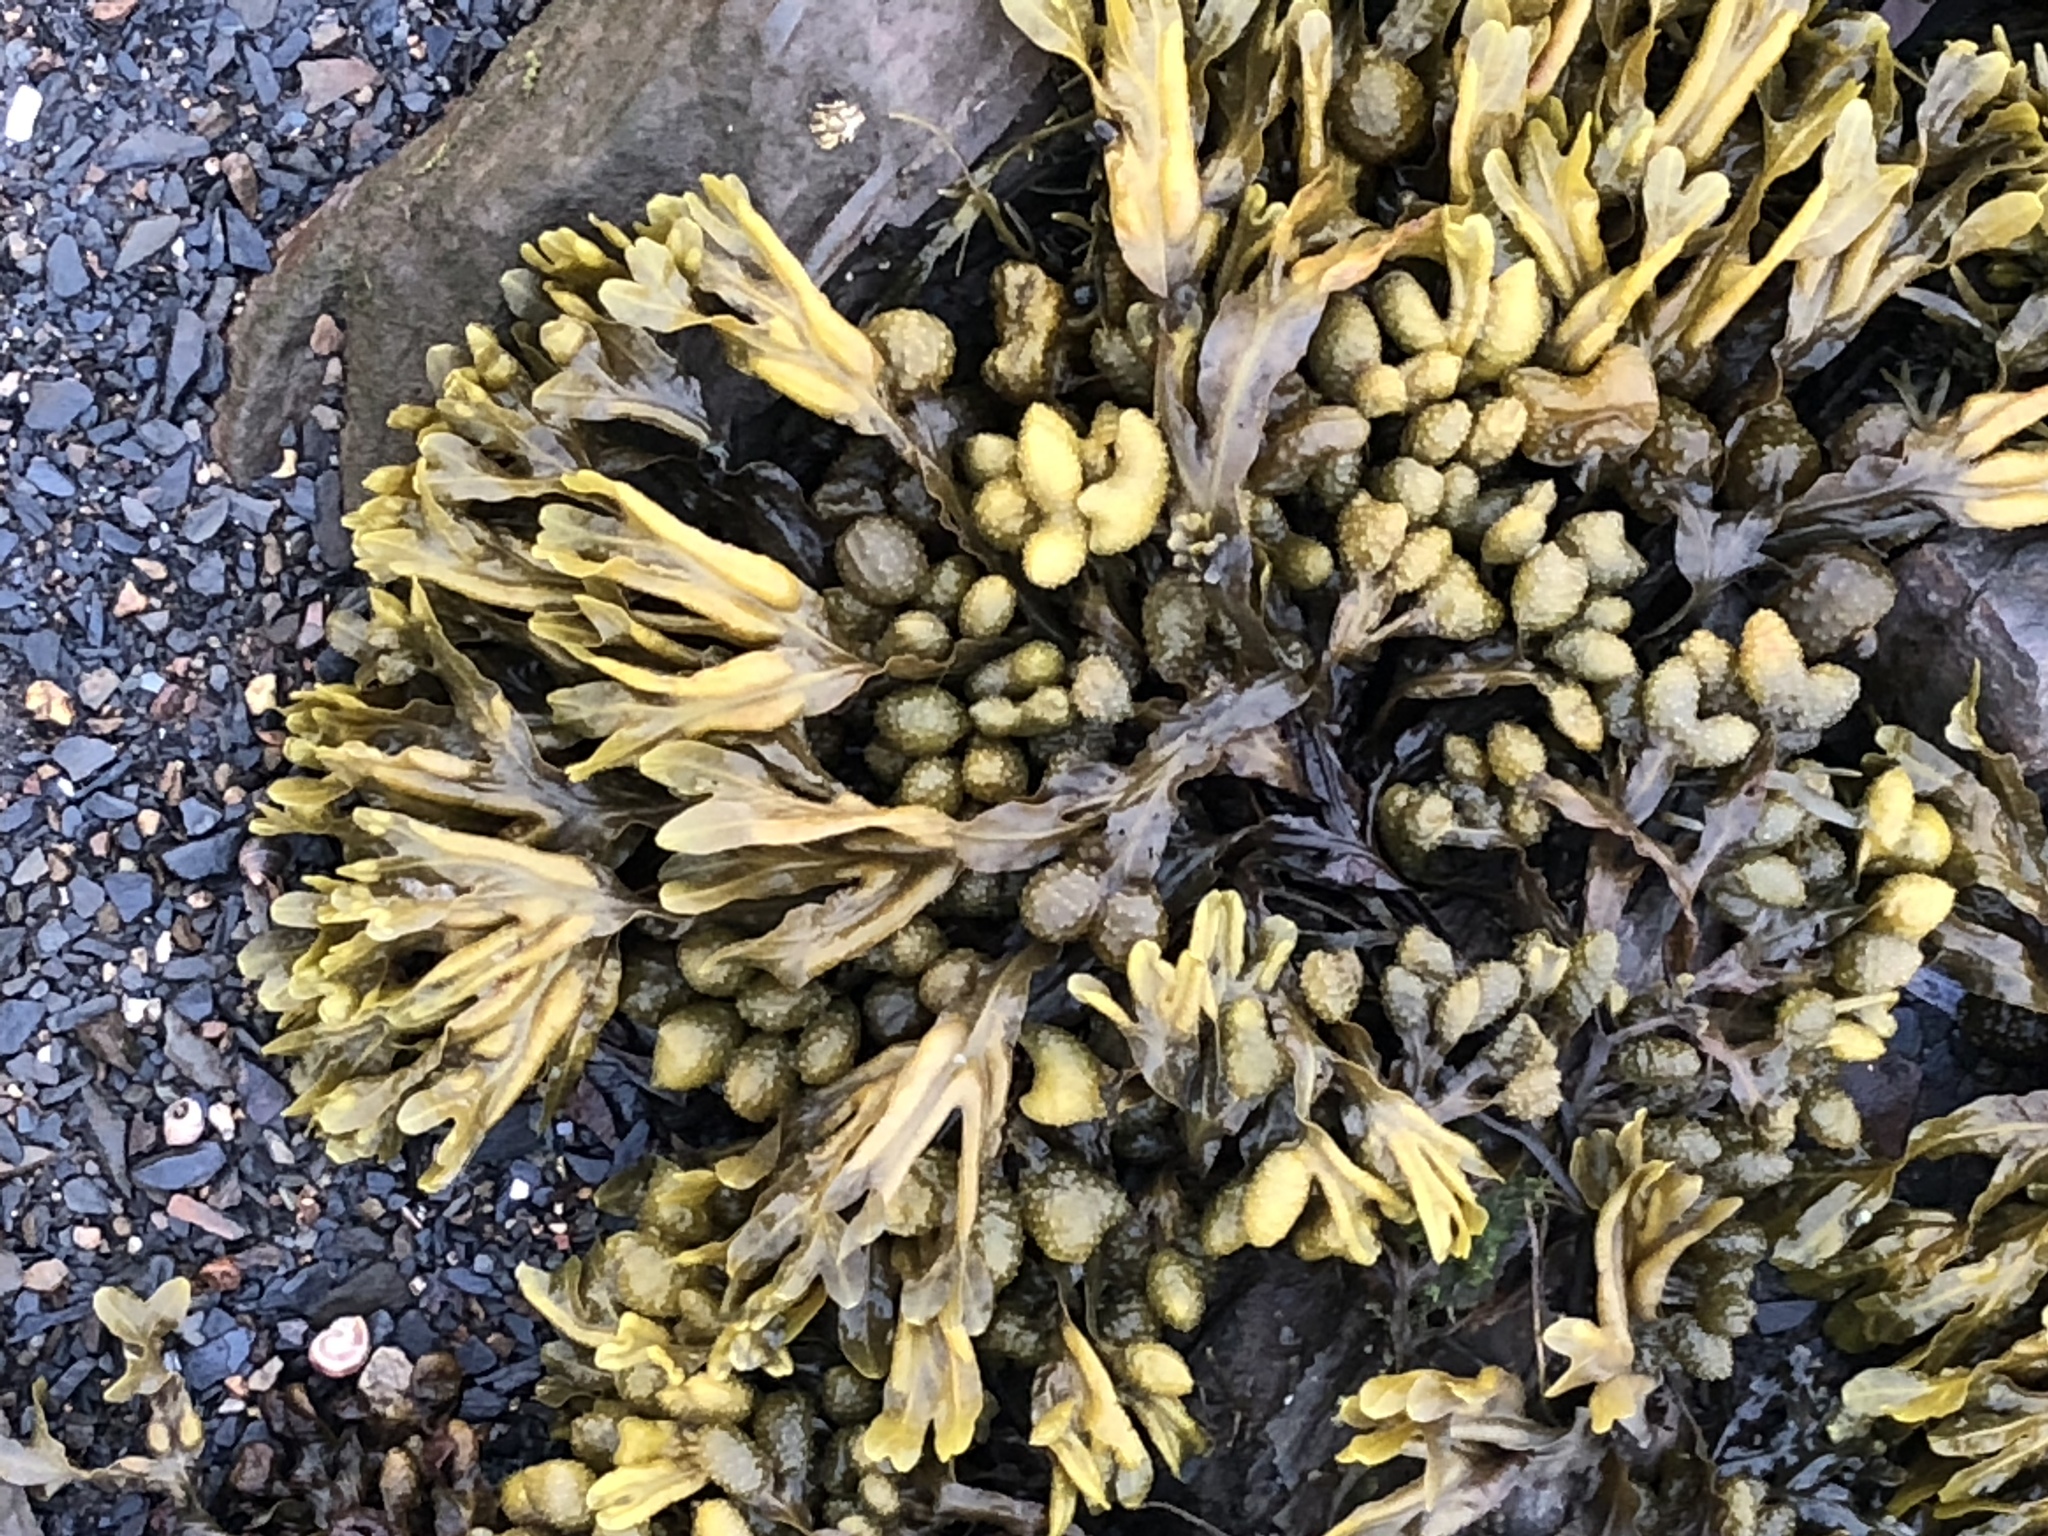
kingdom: Chromista
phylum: Ochrophyta
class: Phaeophyceae
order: Fucales
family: Fucaceae
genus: Fucus
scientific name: Fucus distichus
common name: Rockweed
